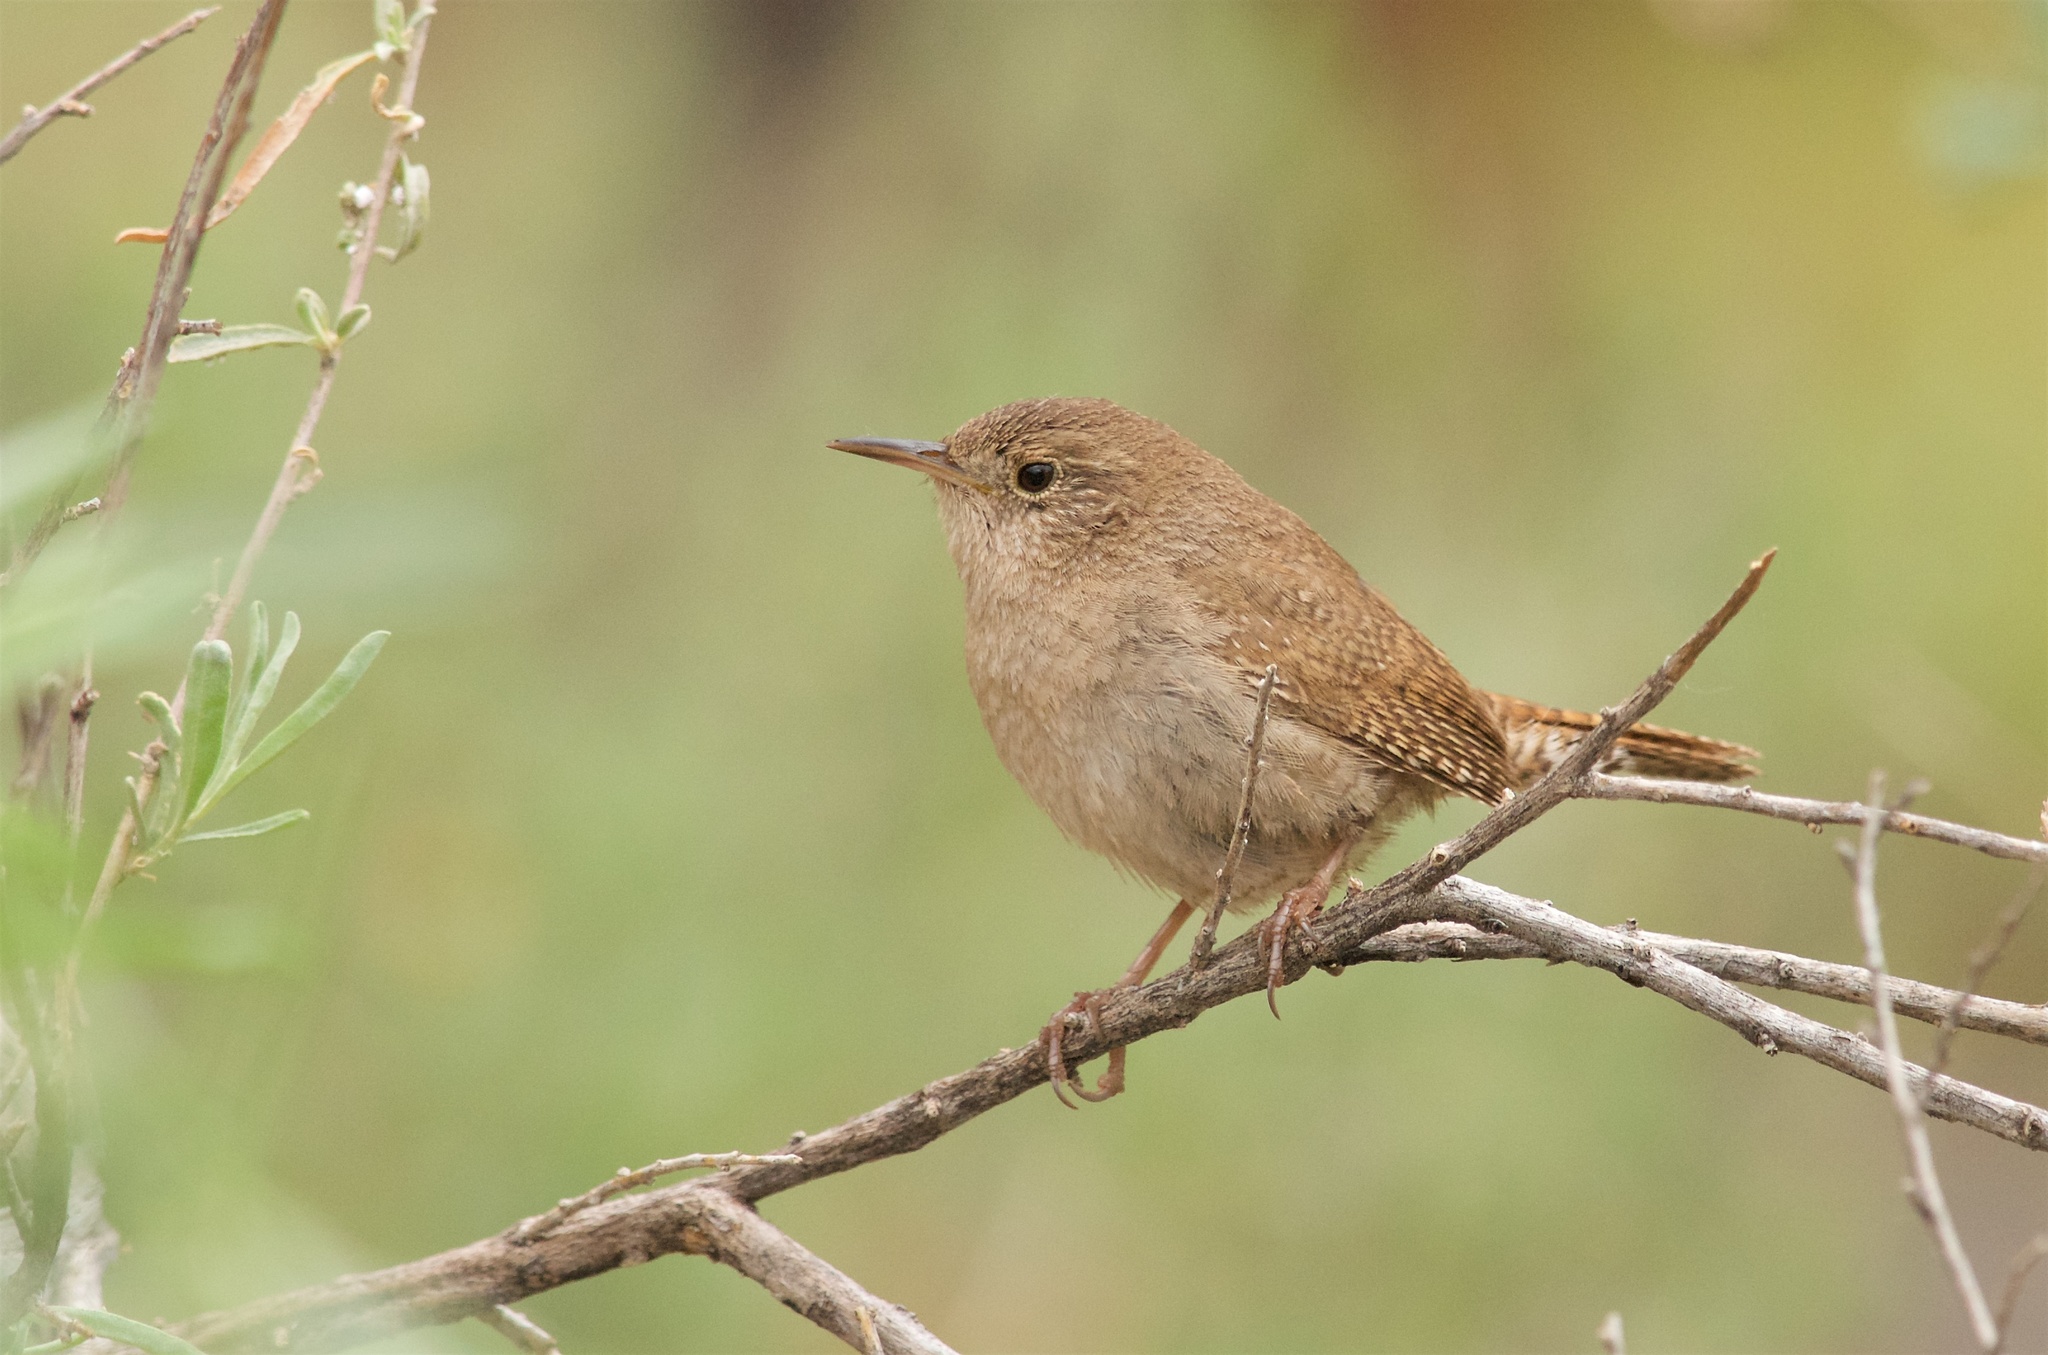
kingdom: Animalia
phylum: Chordata
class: Aves
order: Passeriformes
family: Troglodytidae
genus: Troglodytes
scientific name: Troglodytes aedon
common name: House wren
